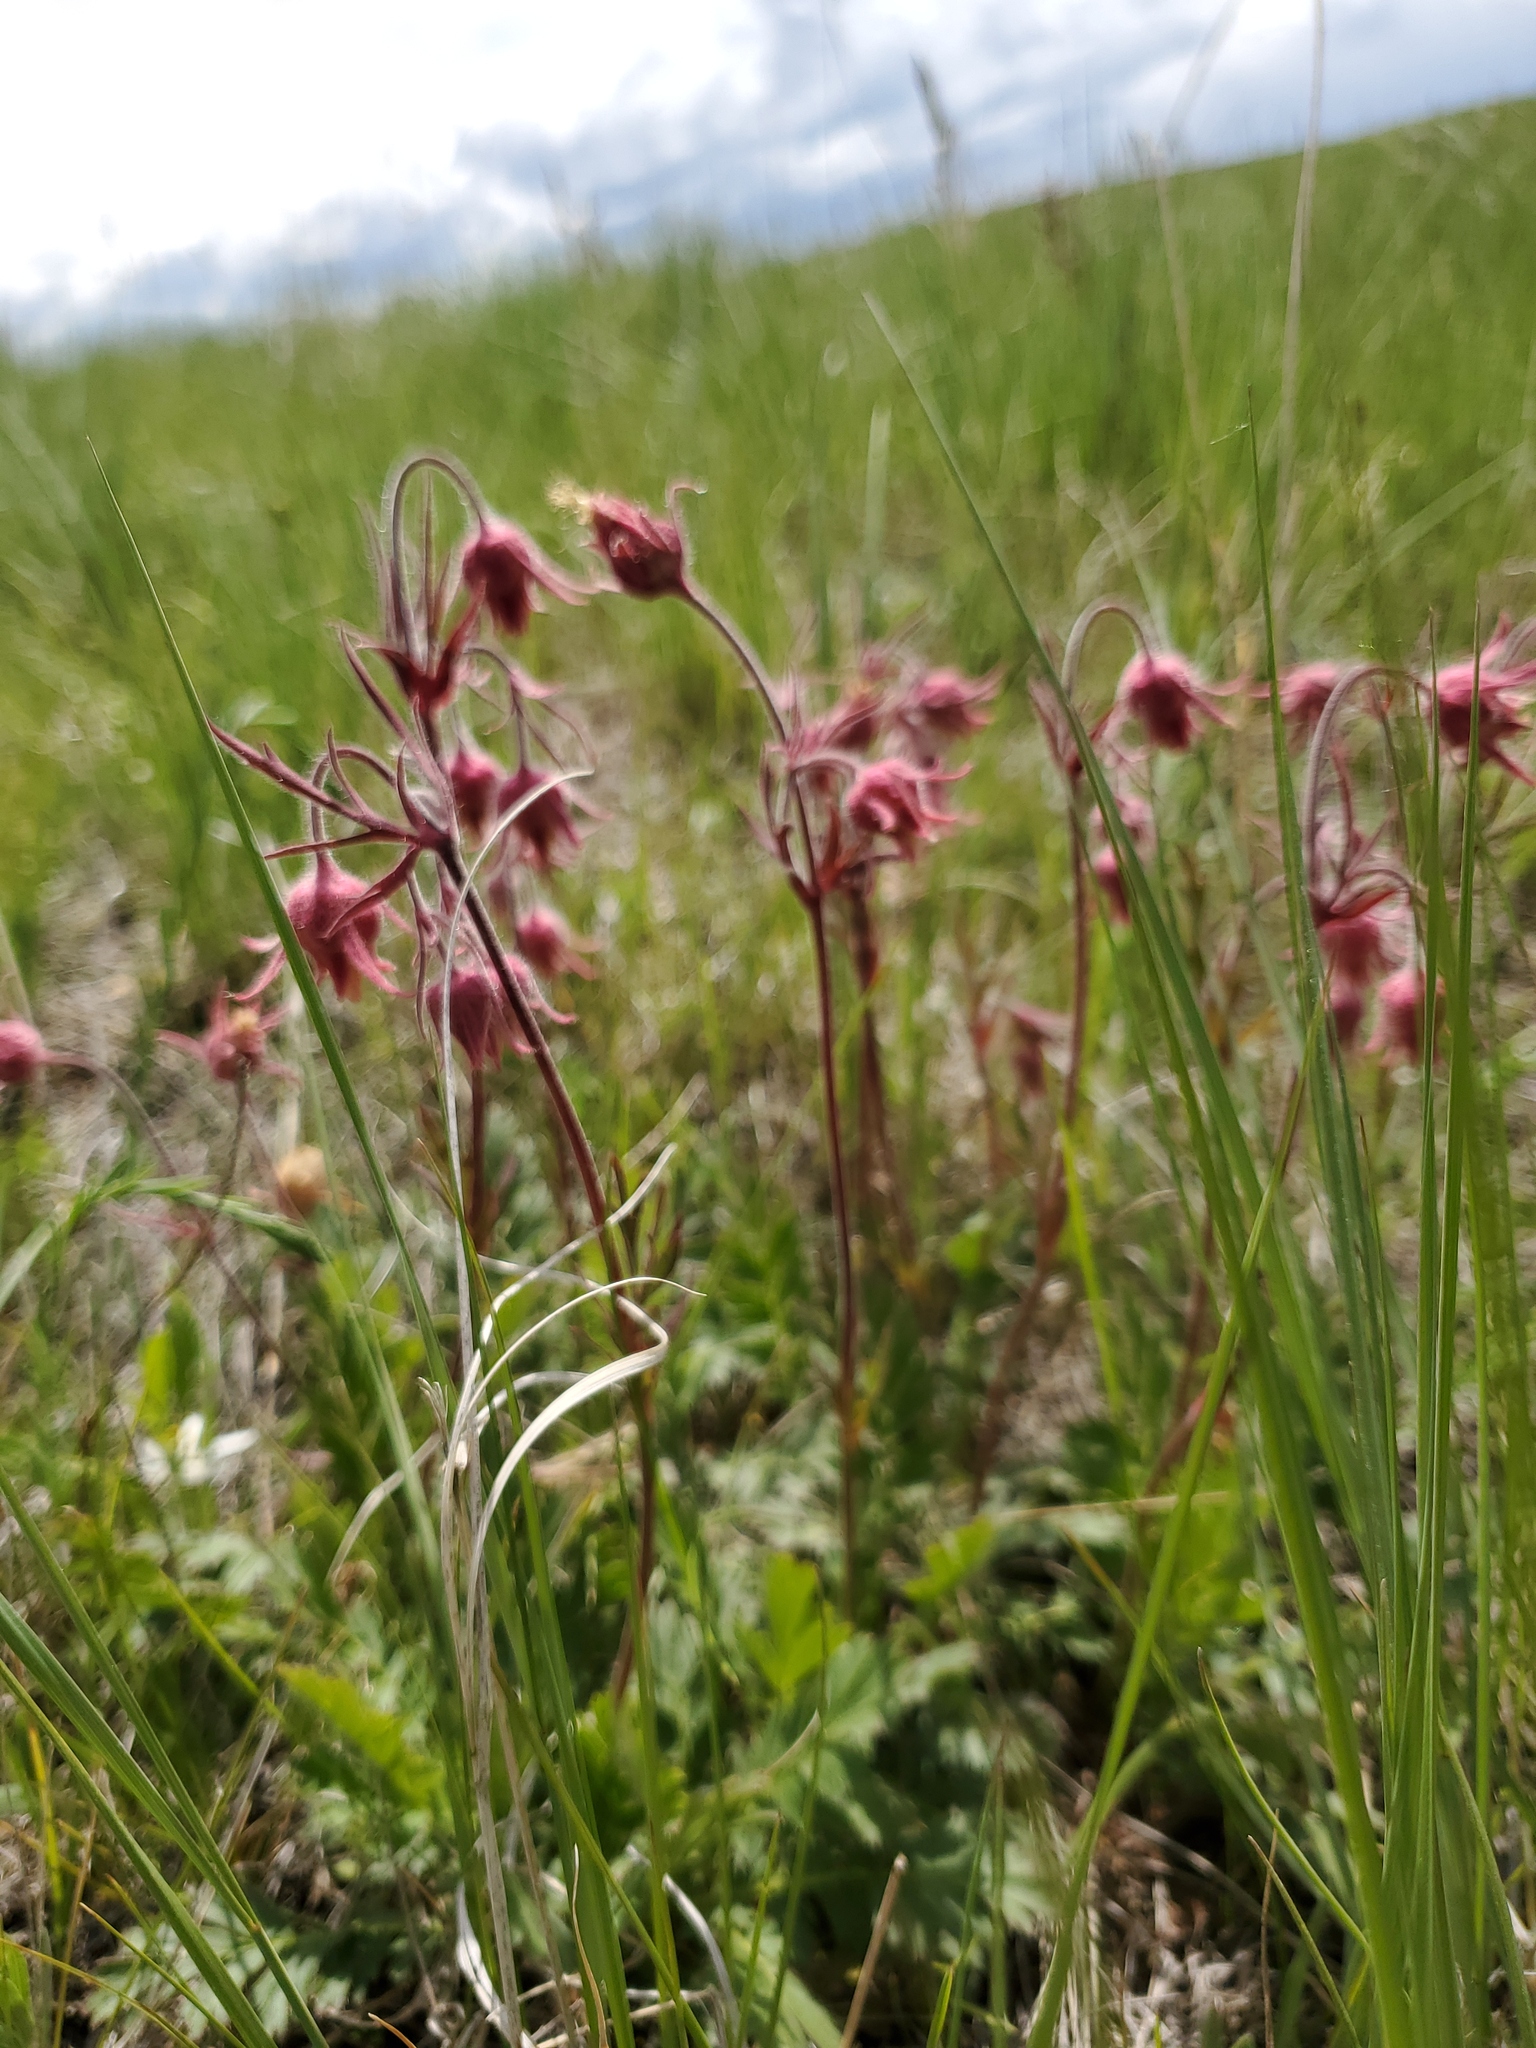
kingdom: Plantae
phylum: Tracheophyta
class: Magnoliopsida
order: Rosales
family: Rosaceae
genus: Geum
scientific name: Geum triflorum
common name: Old man's whiskers
